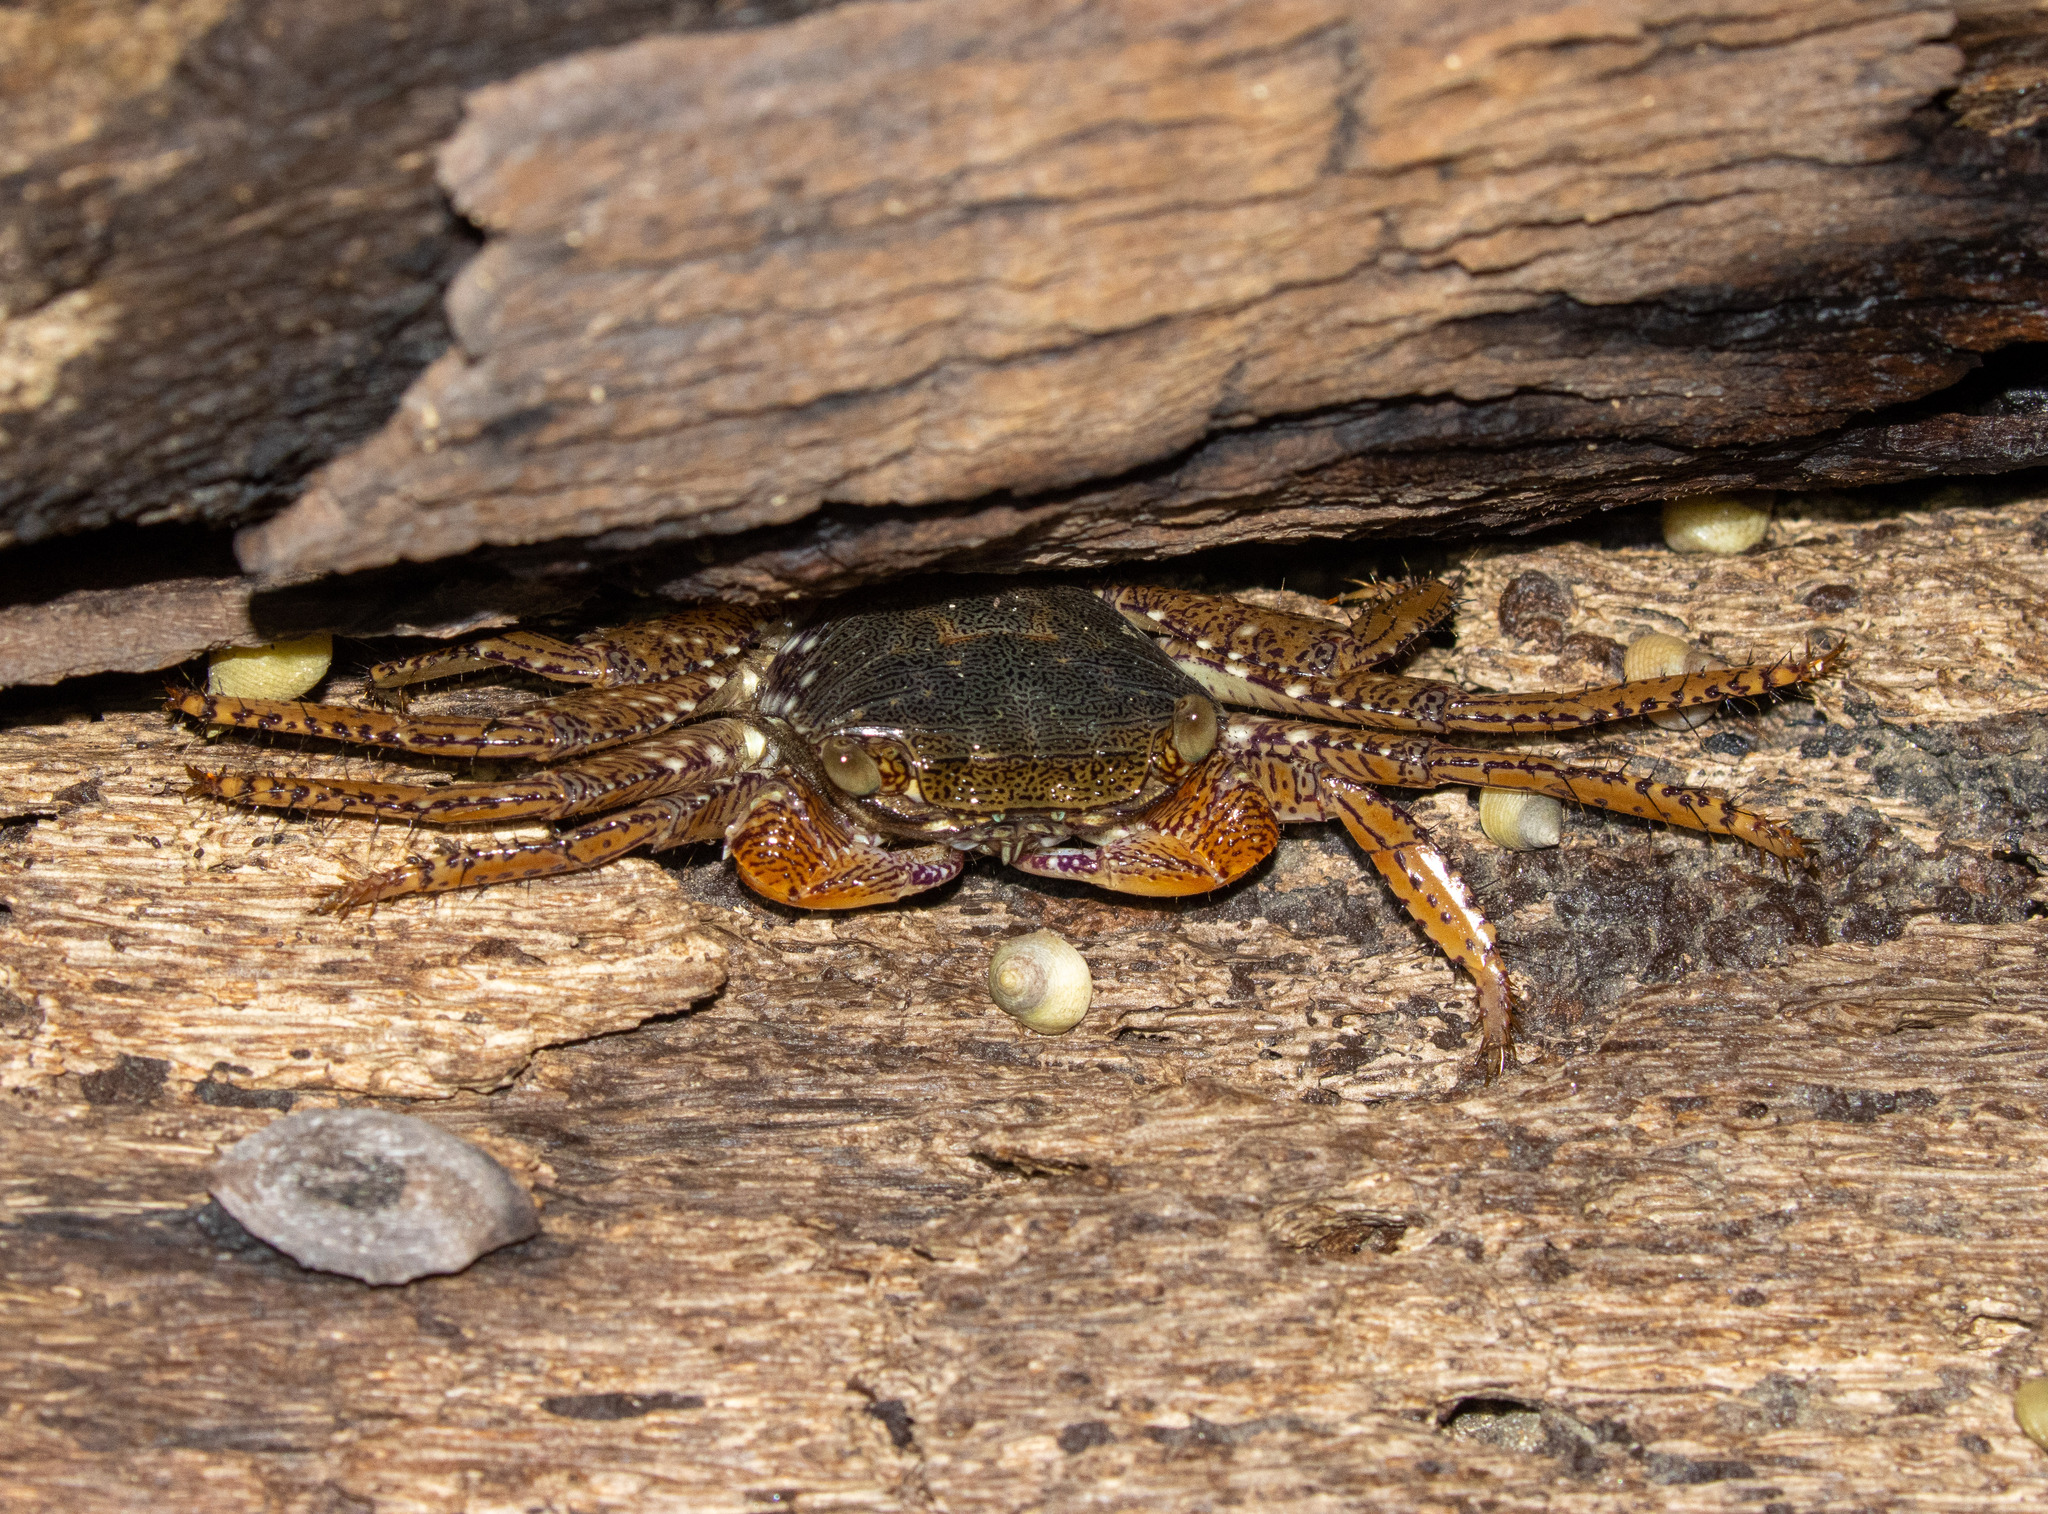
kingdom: Animalia
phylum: Arthropoda
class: Malacostraca
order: Decapoda
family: Grapsidae
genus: Goniopsis
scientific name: Goniopsis cruentata
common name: Mangrove crab
